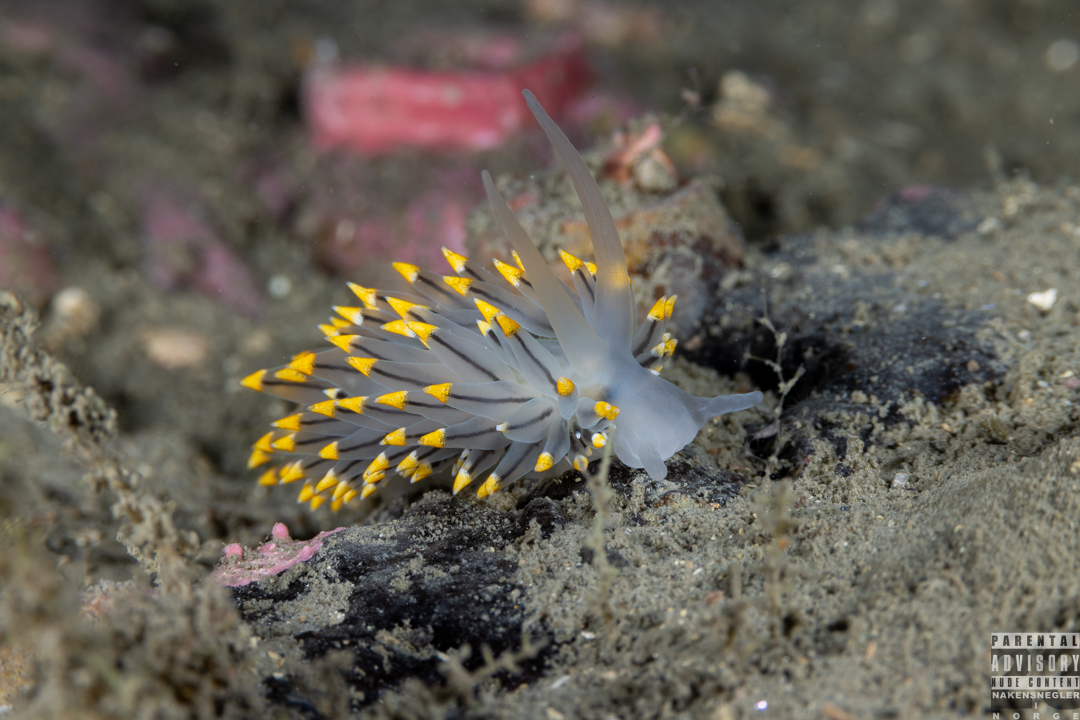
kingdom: Animalia
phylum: Mollusca
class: Gastropoda
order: Nudibranchia
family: Eubranchidae
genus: Eubranchus
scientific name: Eubranchus tricolor
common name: Painted balloon aeolis
